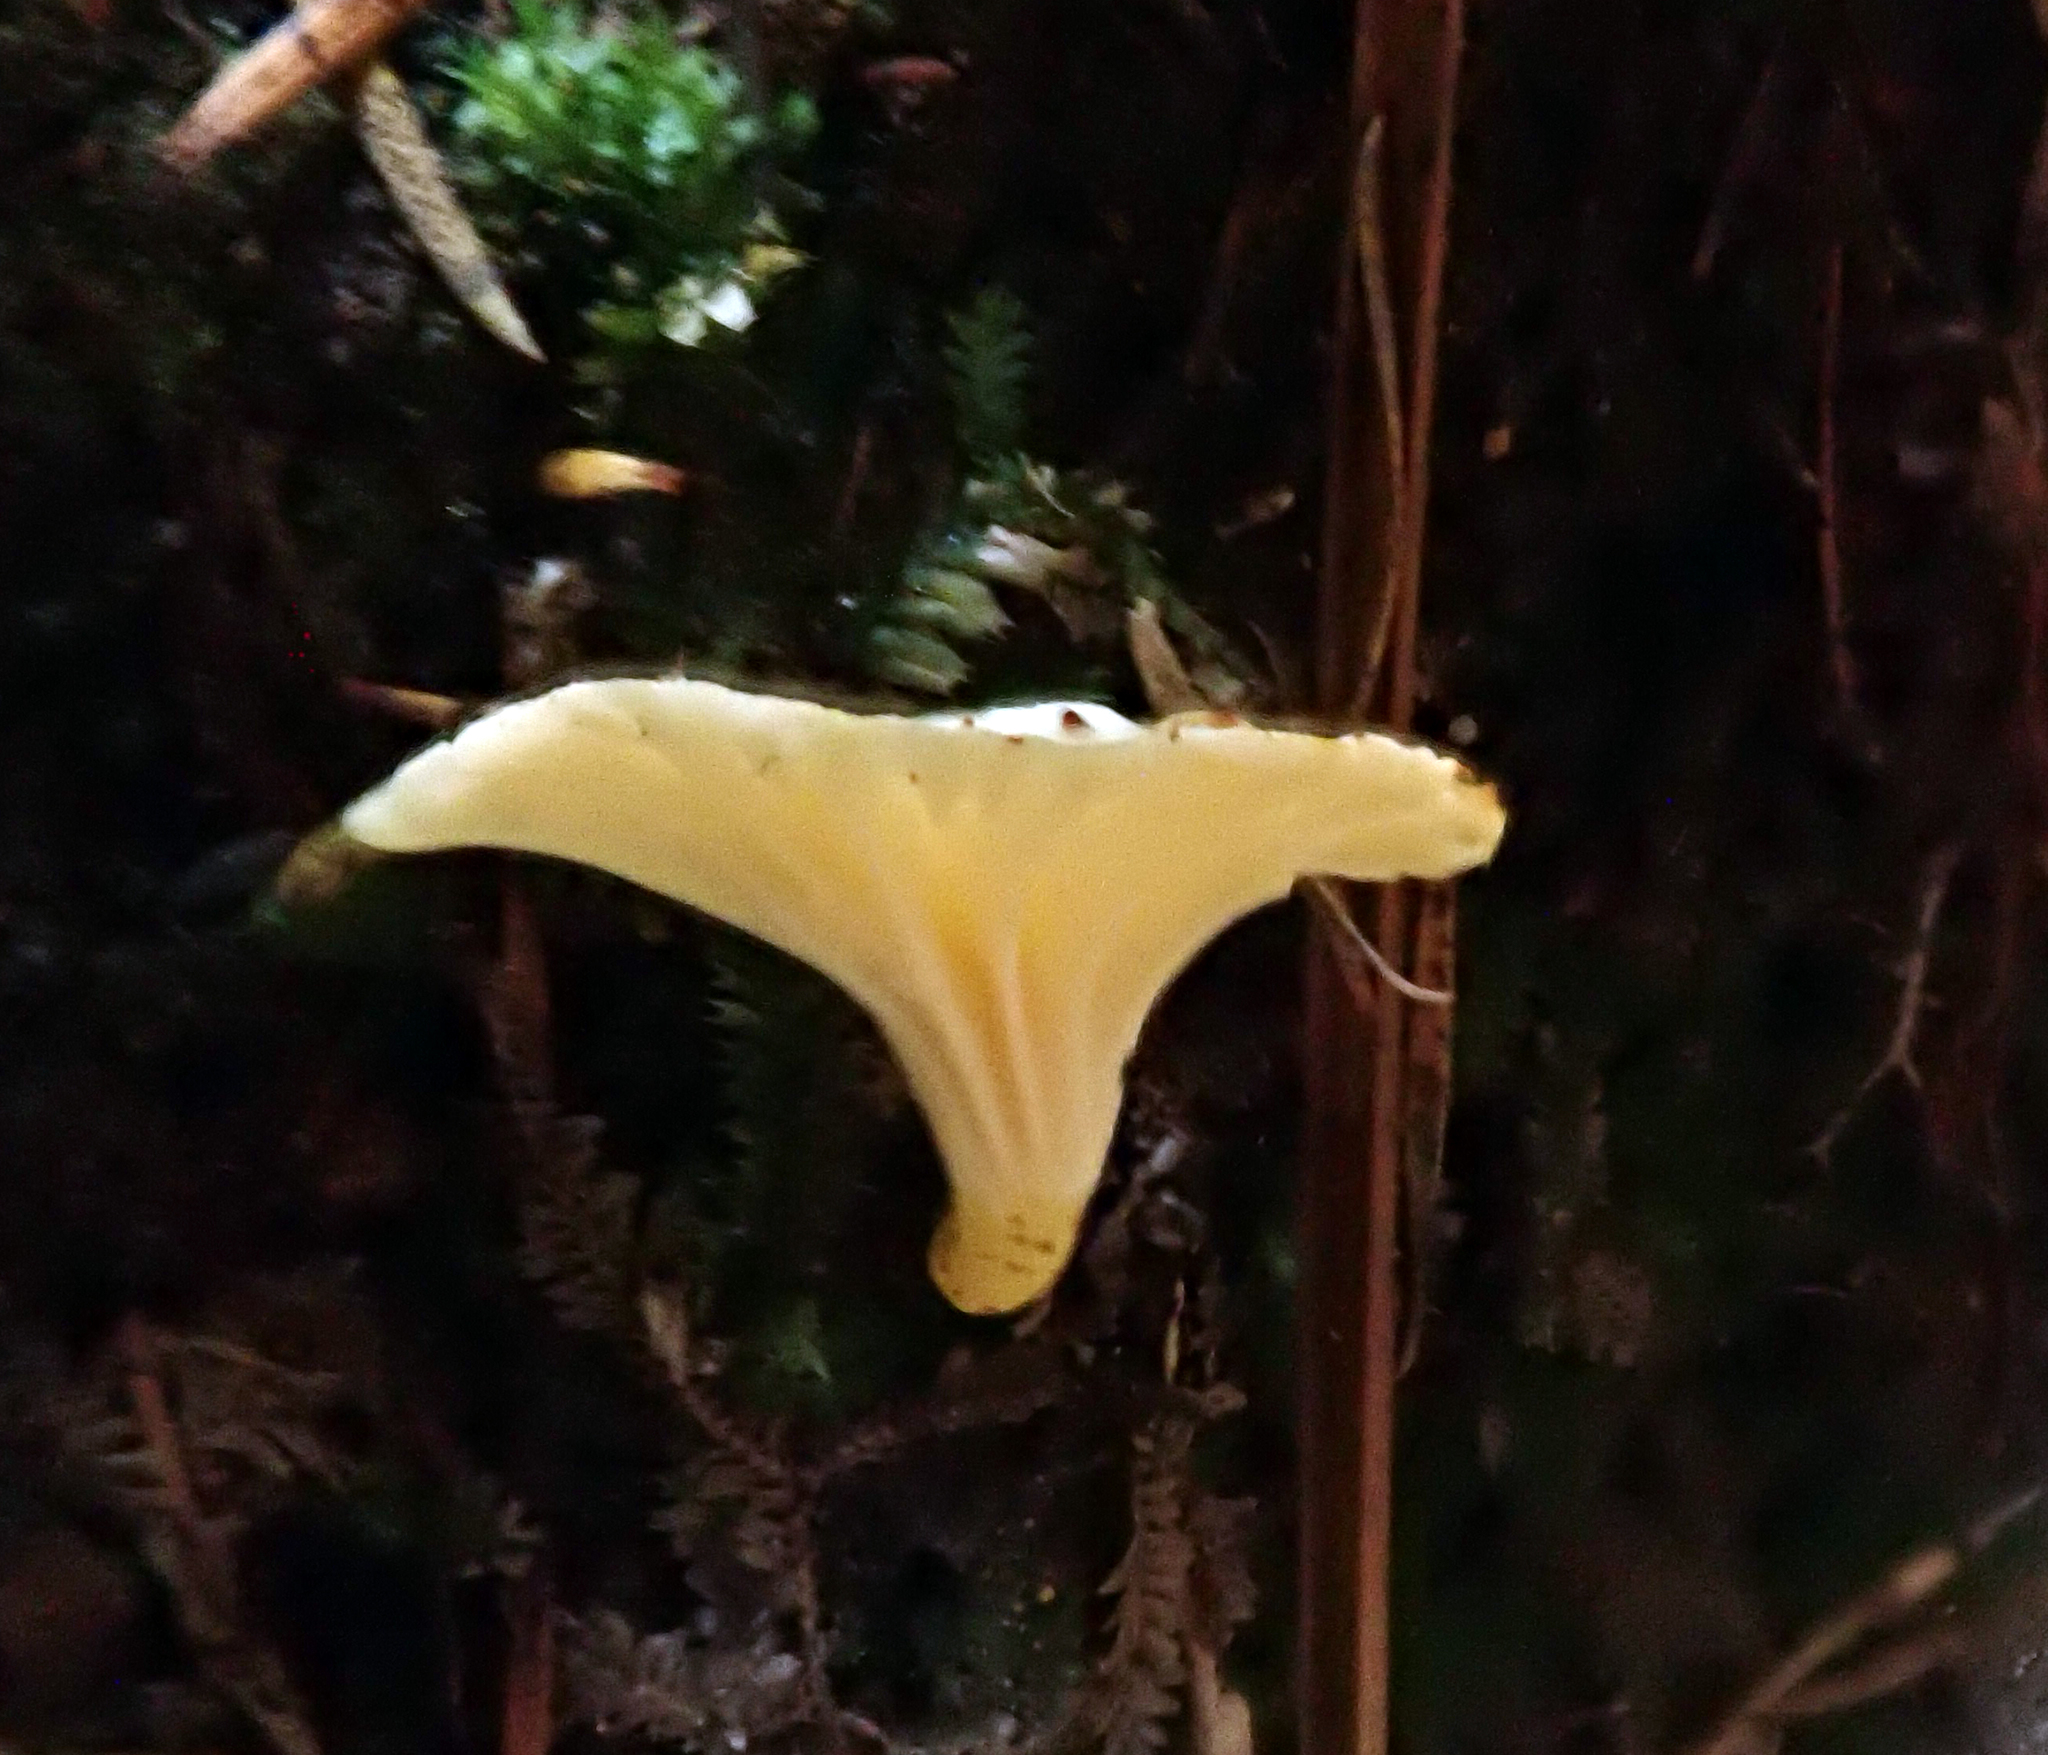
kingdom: Fungi
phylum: Basidiomycota
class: Agaricomycetes
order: Cantharellales
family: Hydnaceae
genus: Cantharellus
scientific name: Cantharellus wellingtonensis
